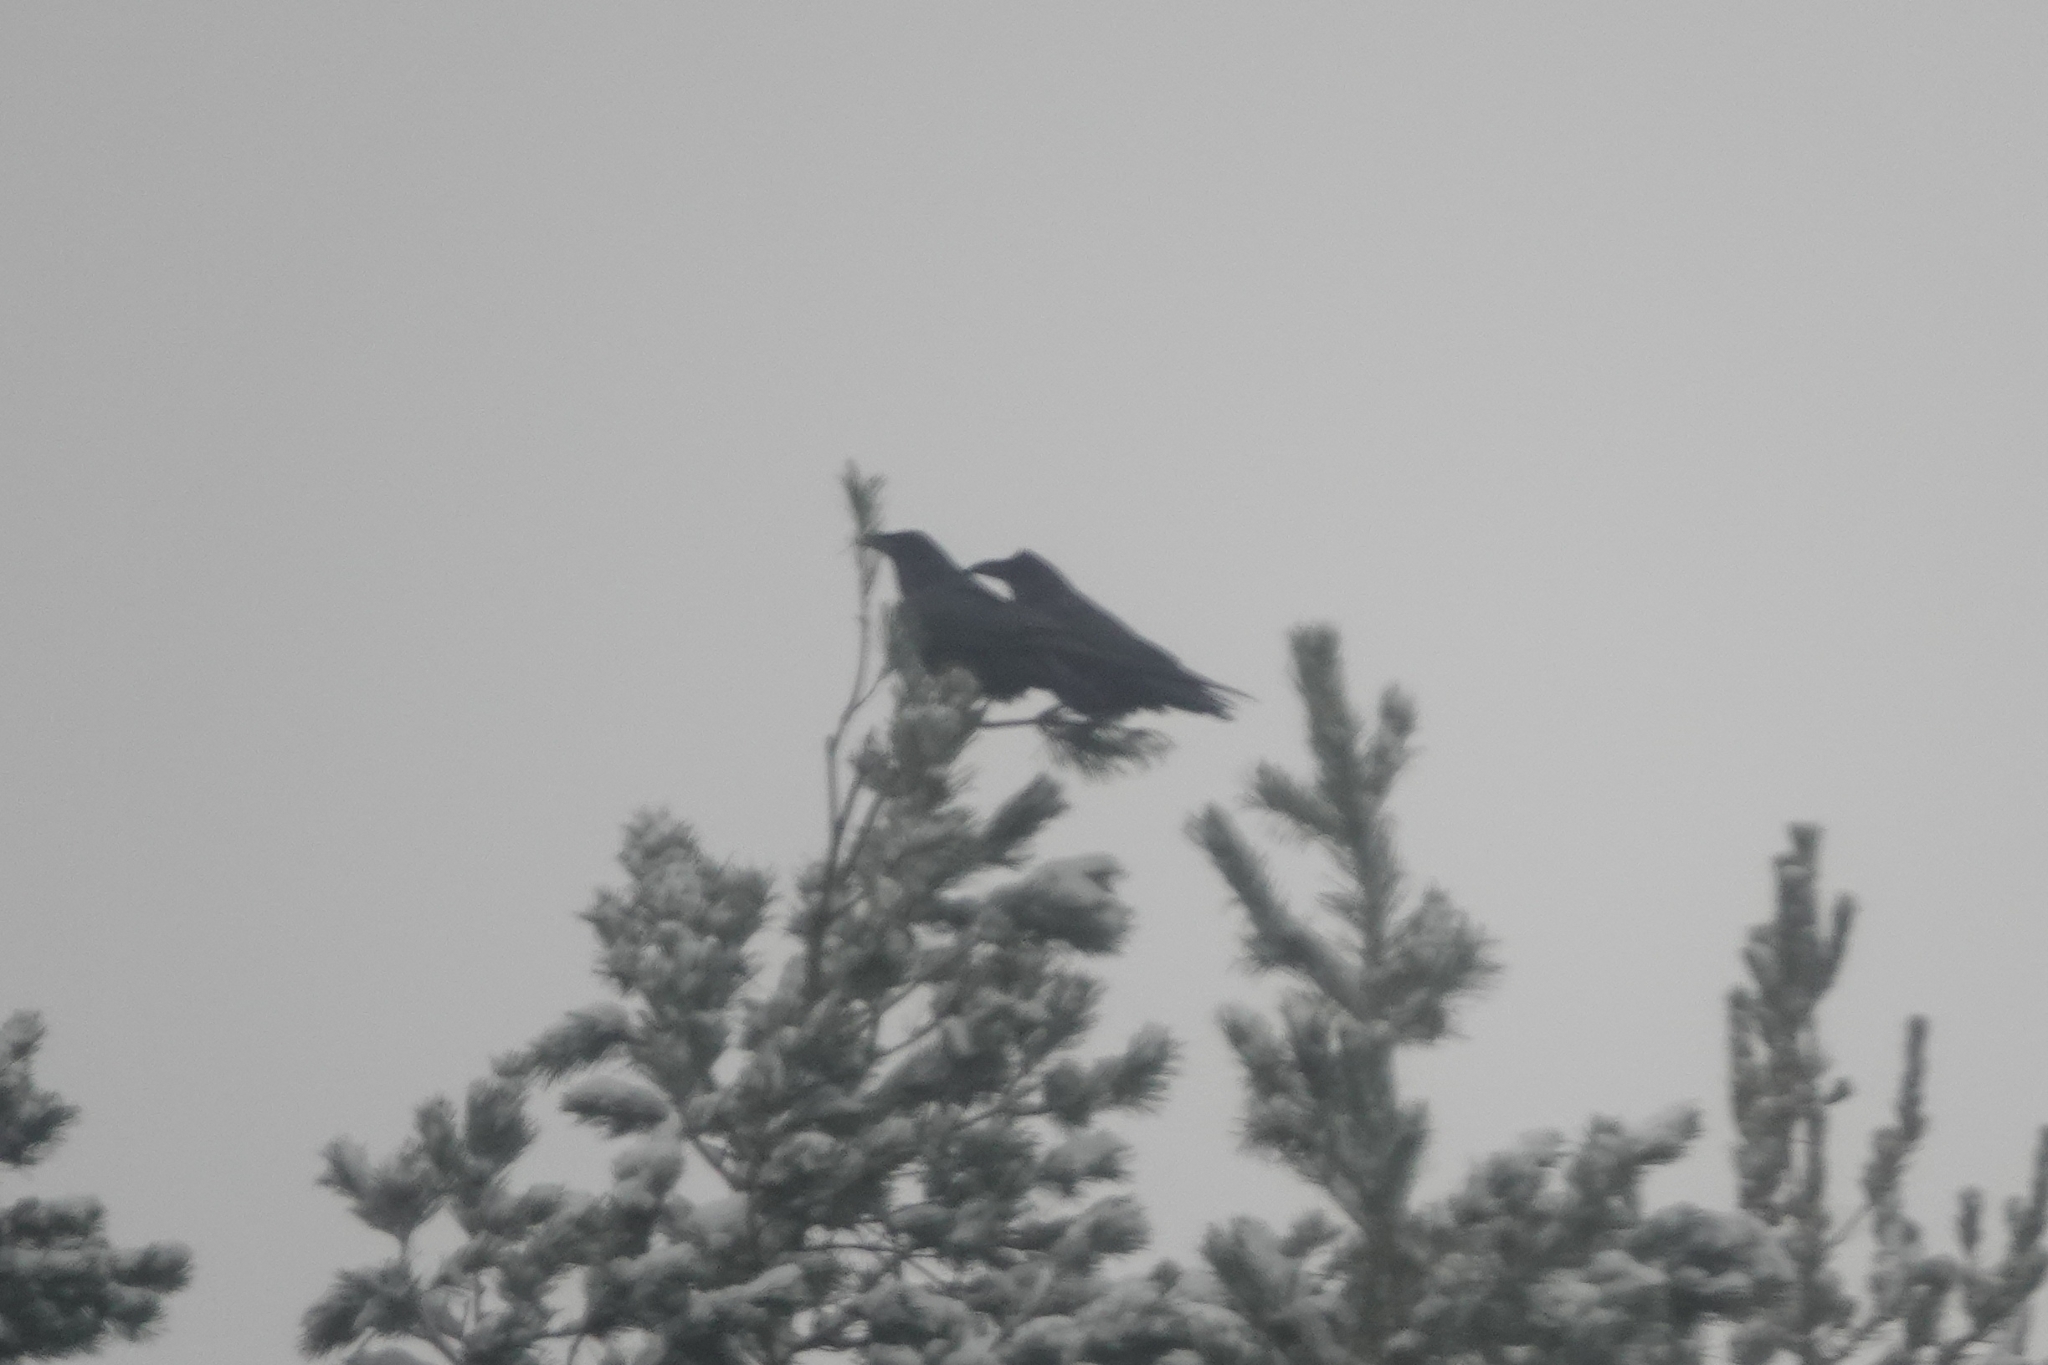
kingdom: Animalia
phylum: Chordata
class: Aves
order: Passeriformes
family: Corvidae
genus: Corvus
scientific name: Corvus corax
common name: Common raven
